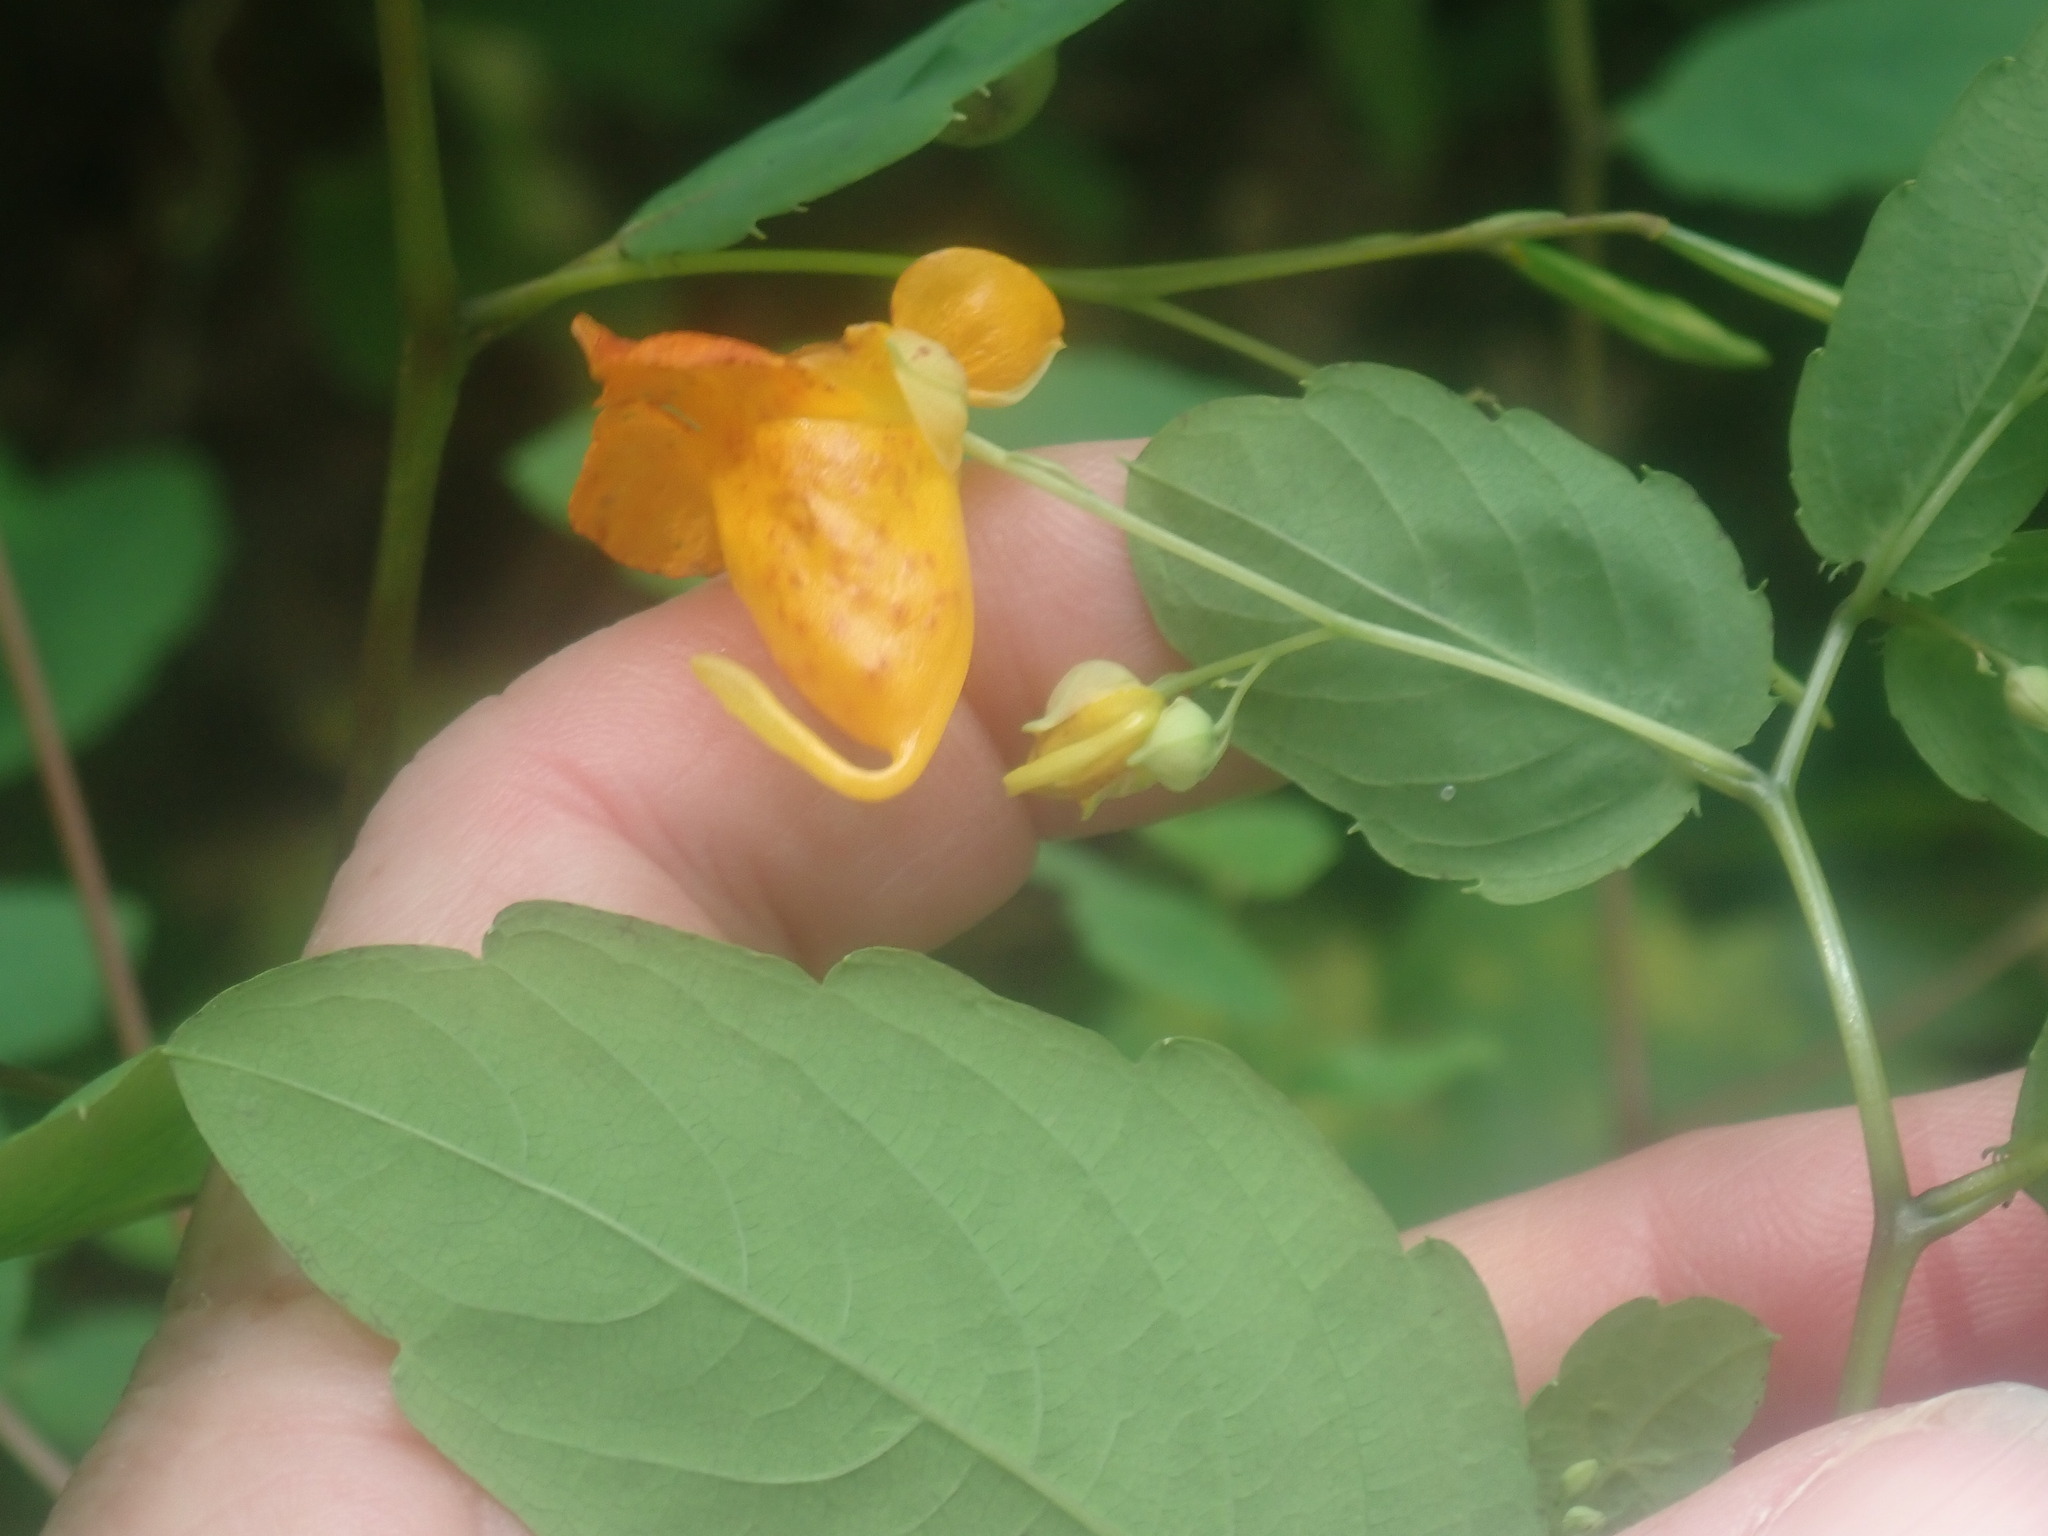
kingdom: Plantae
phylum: Tracheophyta
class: Magnoliopsida
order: Ericales
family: Balsaminaceae
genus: Impatiens
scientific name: Impatiens capensis
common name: Orange balsam
